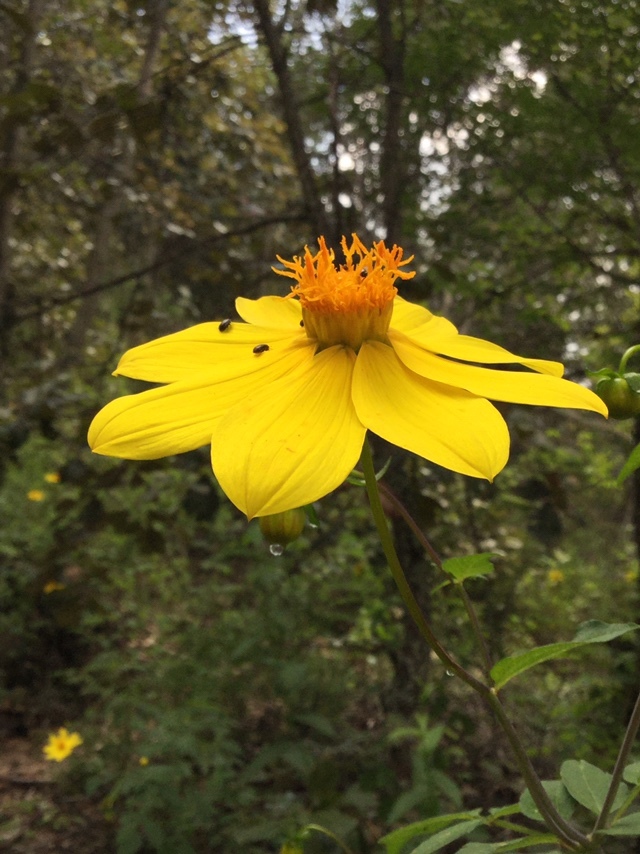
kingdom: Plantae
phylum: Tracheophyta
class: Magnoliopsida
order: Asterales
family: Asteraceae
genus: Dahlia
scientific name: Dahlia coccinea
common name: Red dahlia
